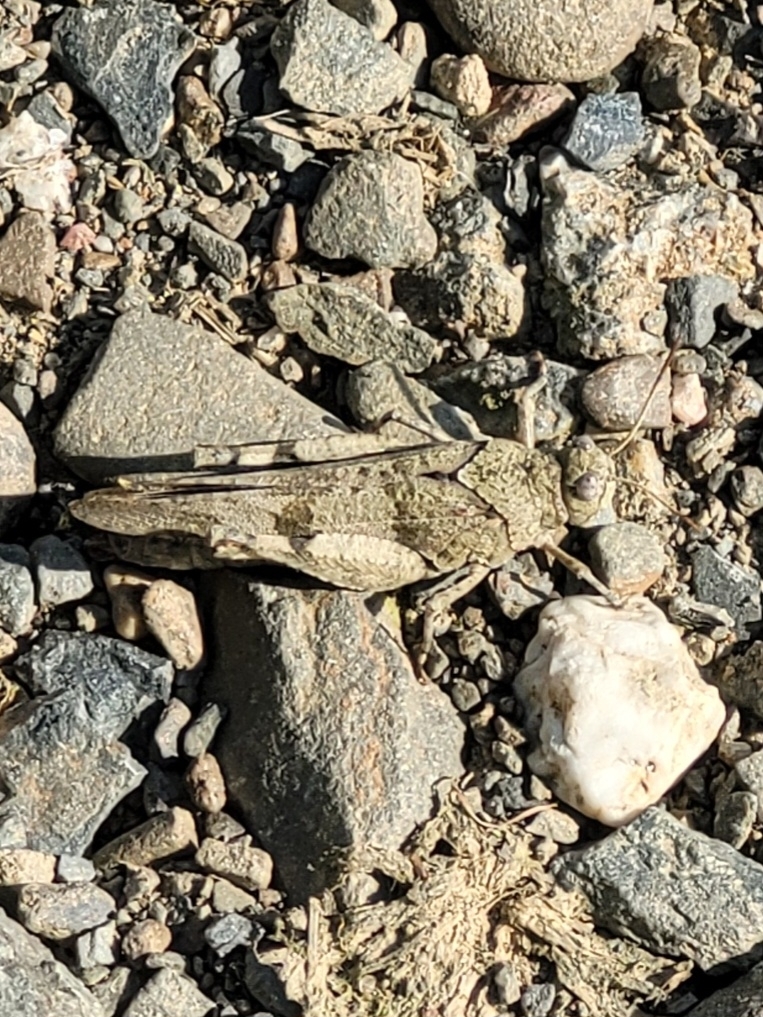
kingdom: Animalia
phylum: Arthropoda
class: Insecta
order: Orthoptera
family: Acrididae
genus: Oedipoda
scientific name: Oedipoda caerulescens
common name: Blue-winged grasshopper
